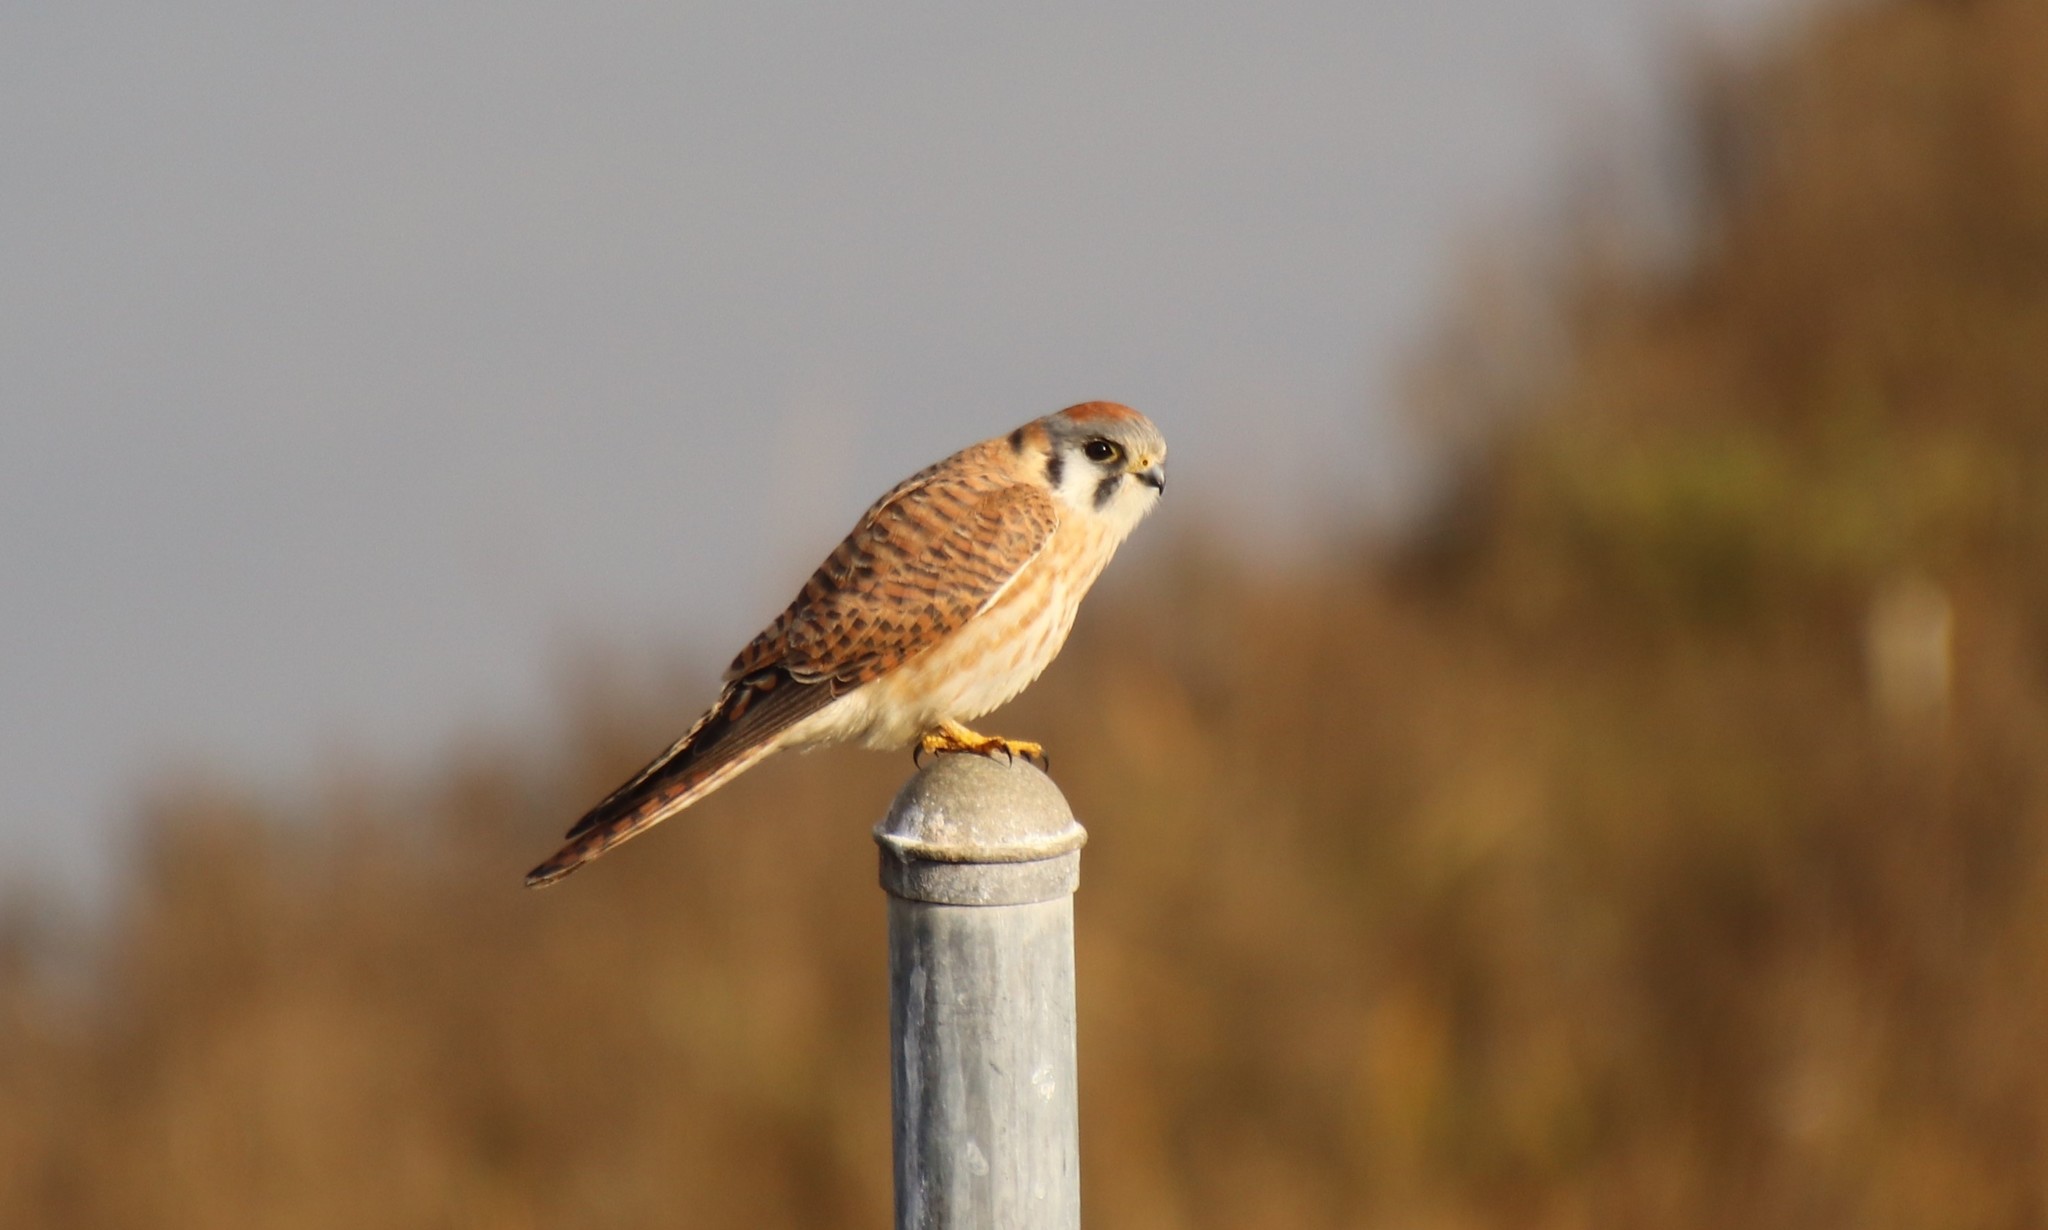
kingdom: Animalia
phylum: Chordata
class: Aves
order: Falconiformes
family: Falconidae
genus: Falco
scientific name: Falco sparverius
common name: American kestrel
